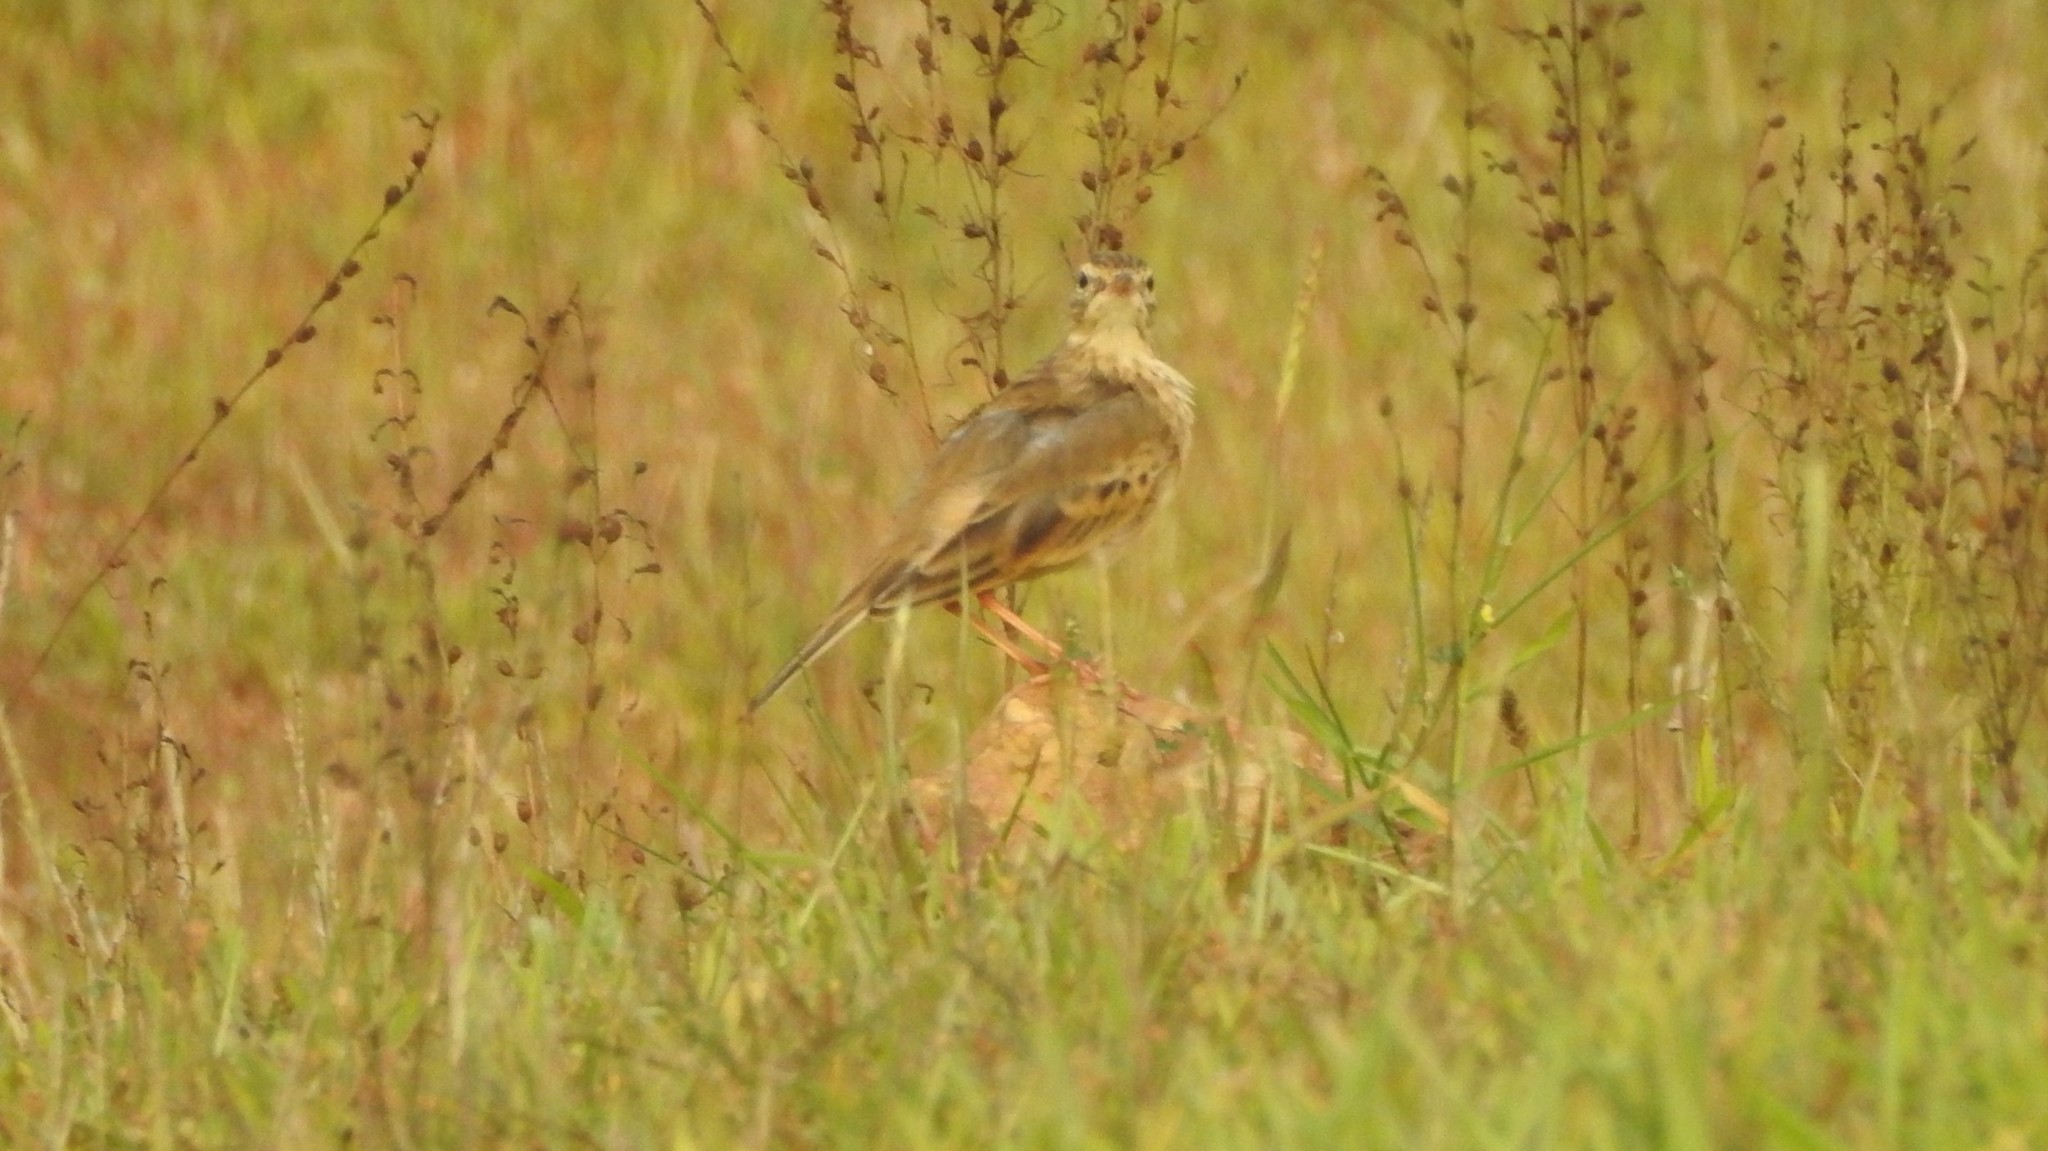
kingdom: Animalia
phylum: Chordata
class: Aves
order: Passeriformes
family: Motacillidae
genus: Anthus
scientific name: Anthus rufulus
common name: Paddyfield pipit
